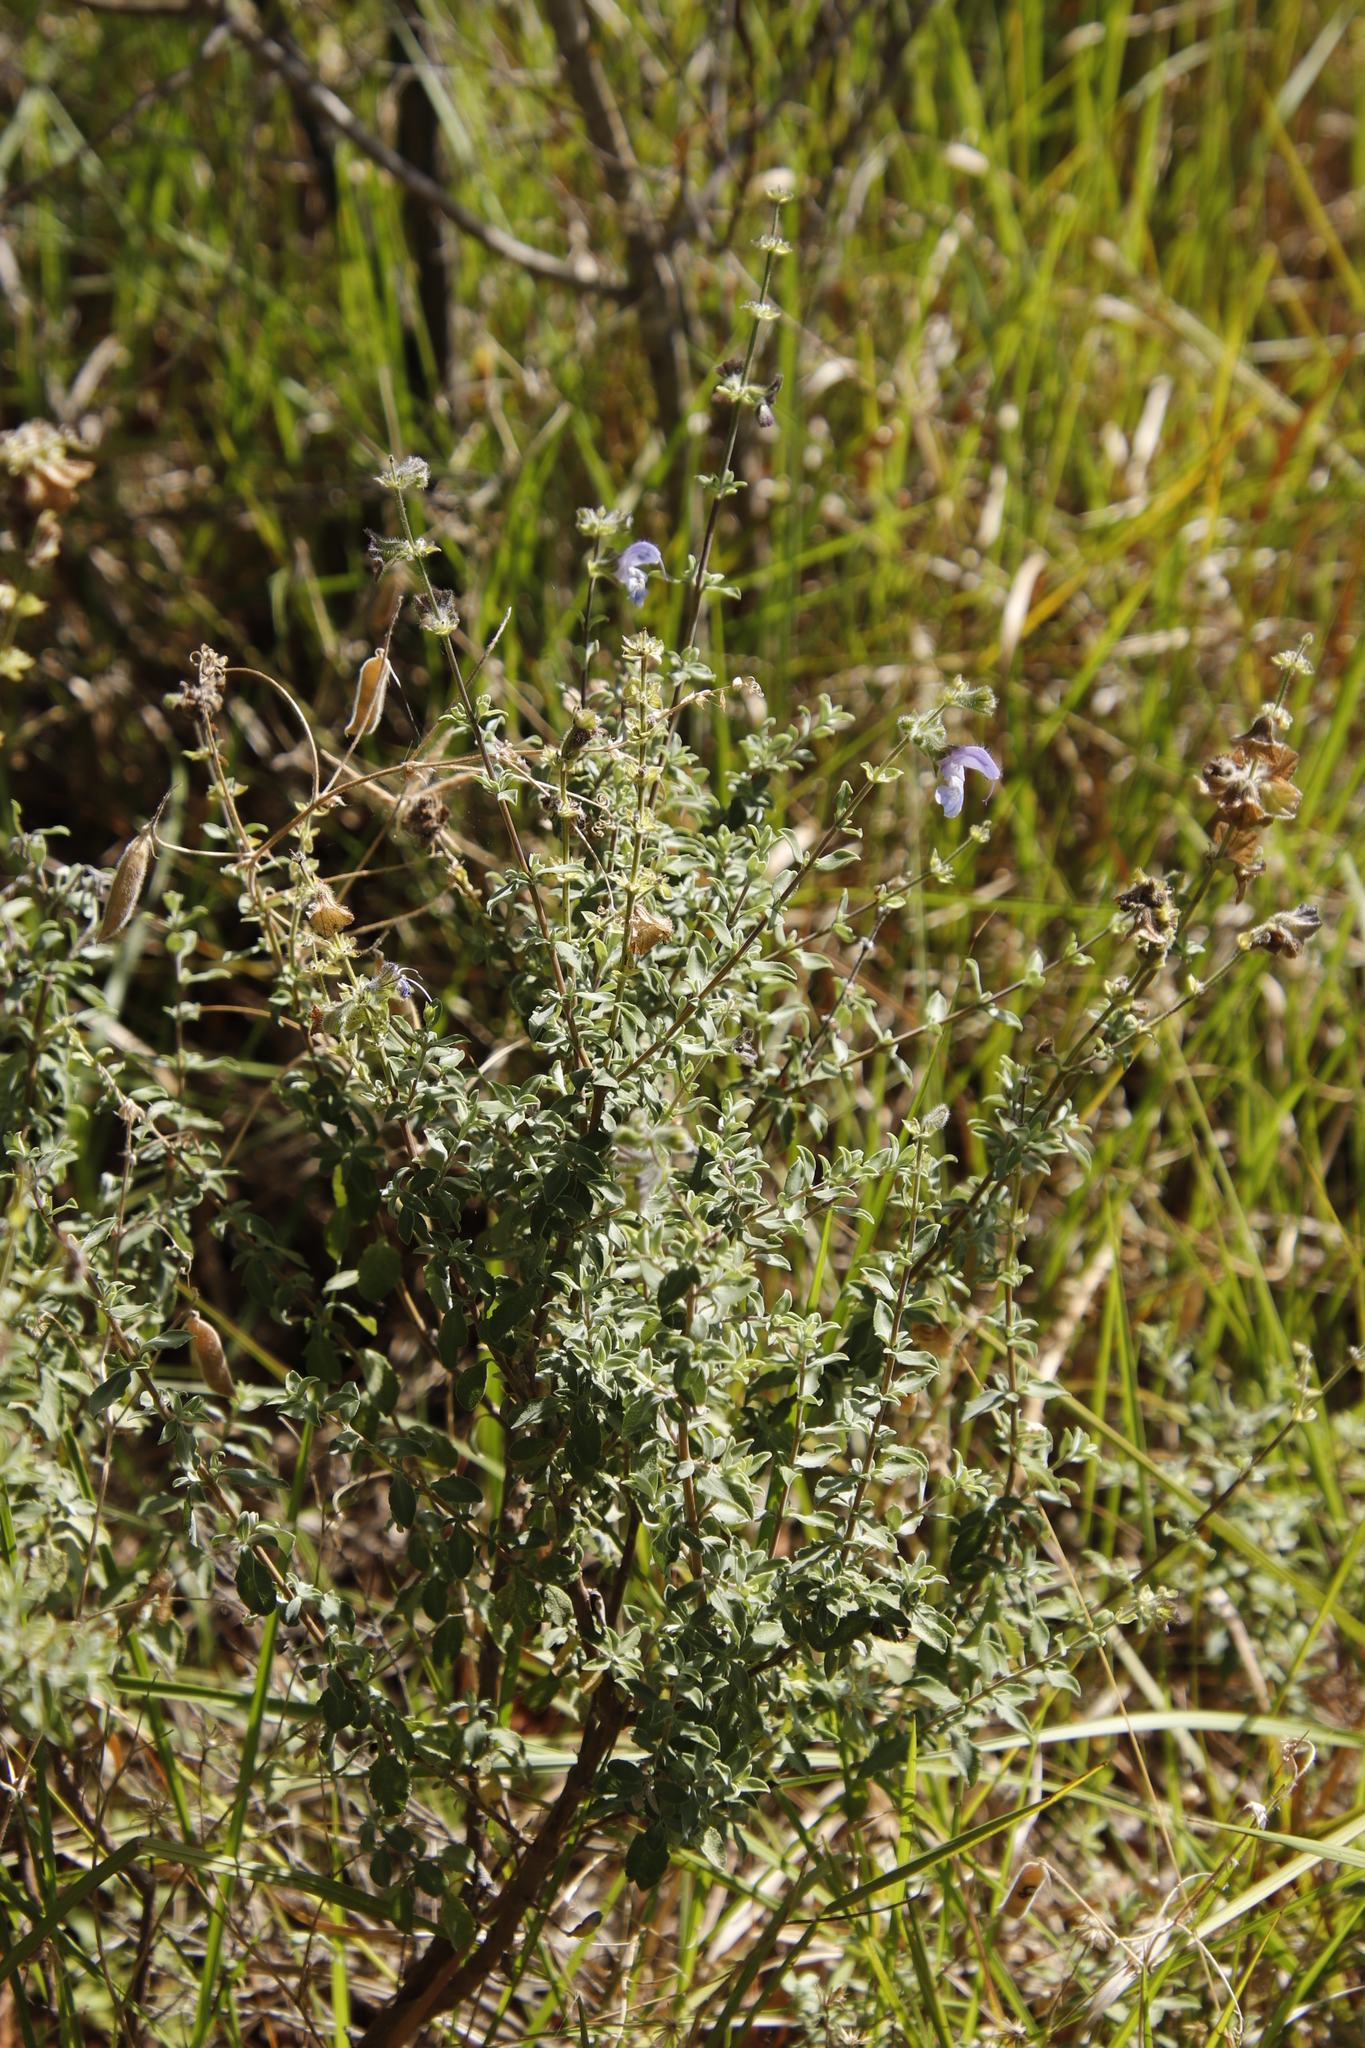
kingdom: Plantae
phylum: Tracheophyta
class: Magnoliopsida
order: Lamiales
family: Lamiaceae
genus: Salvia
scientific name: Salvia africana
